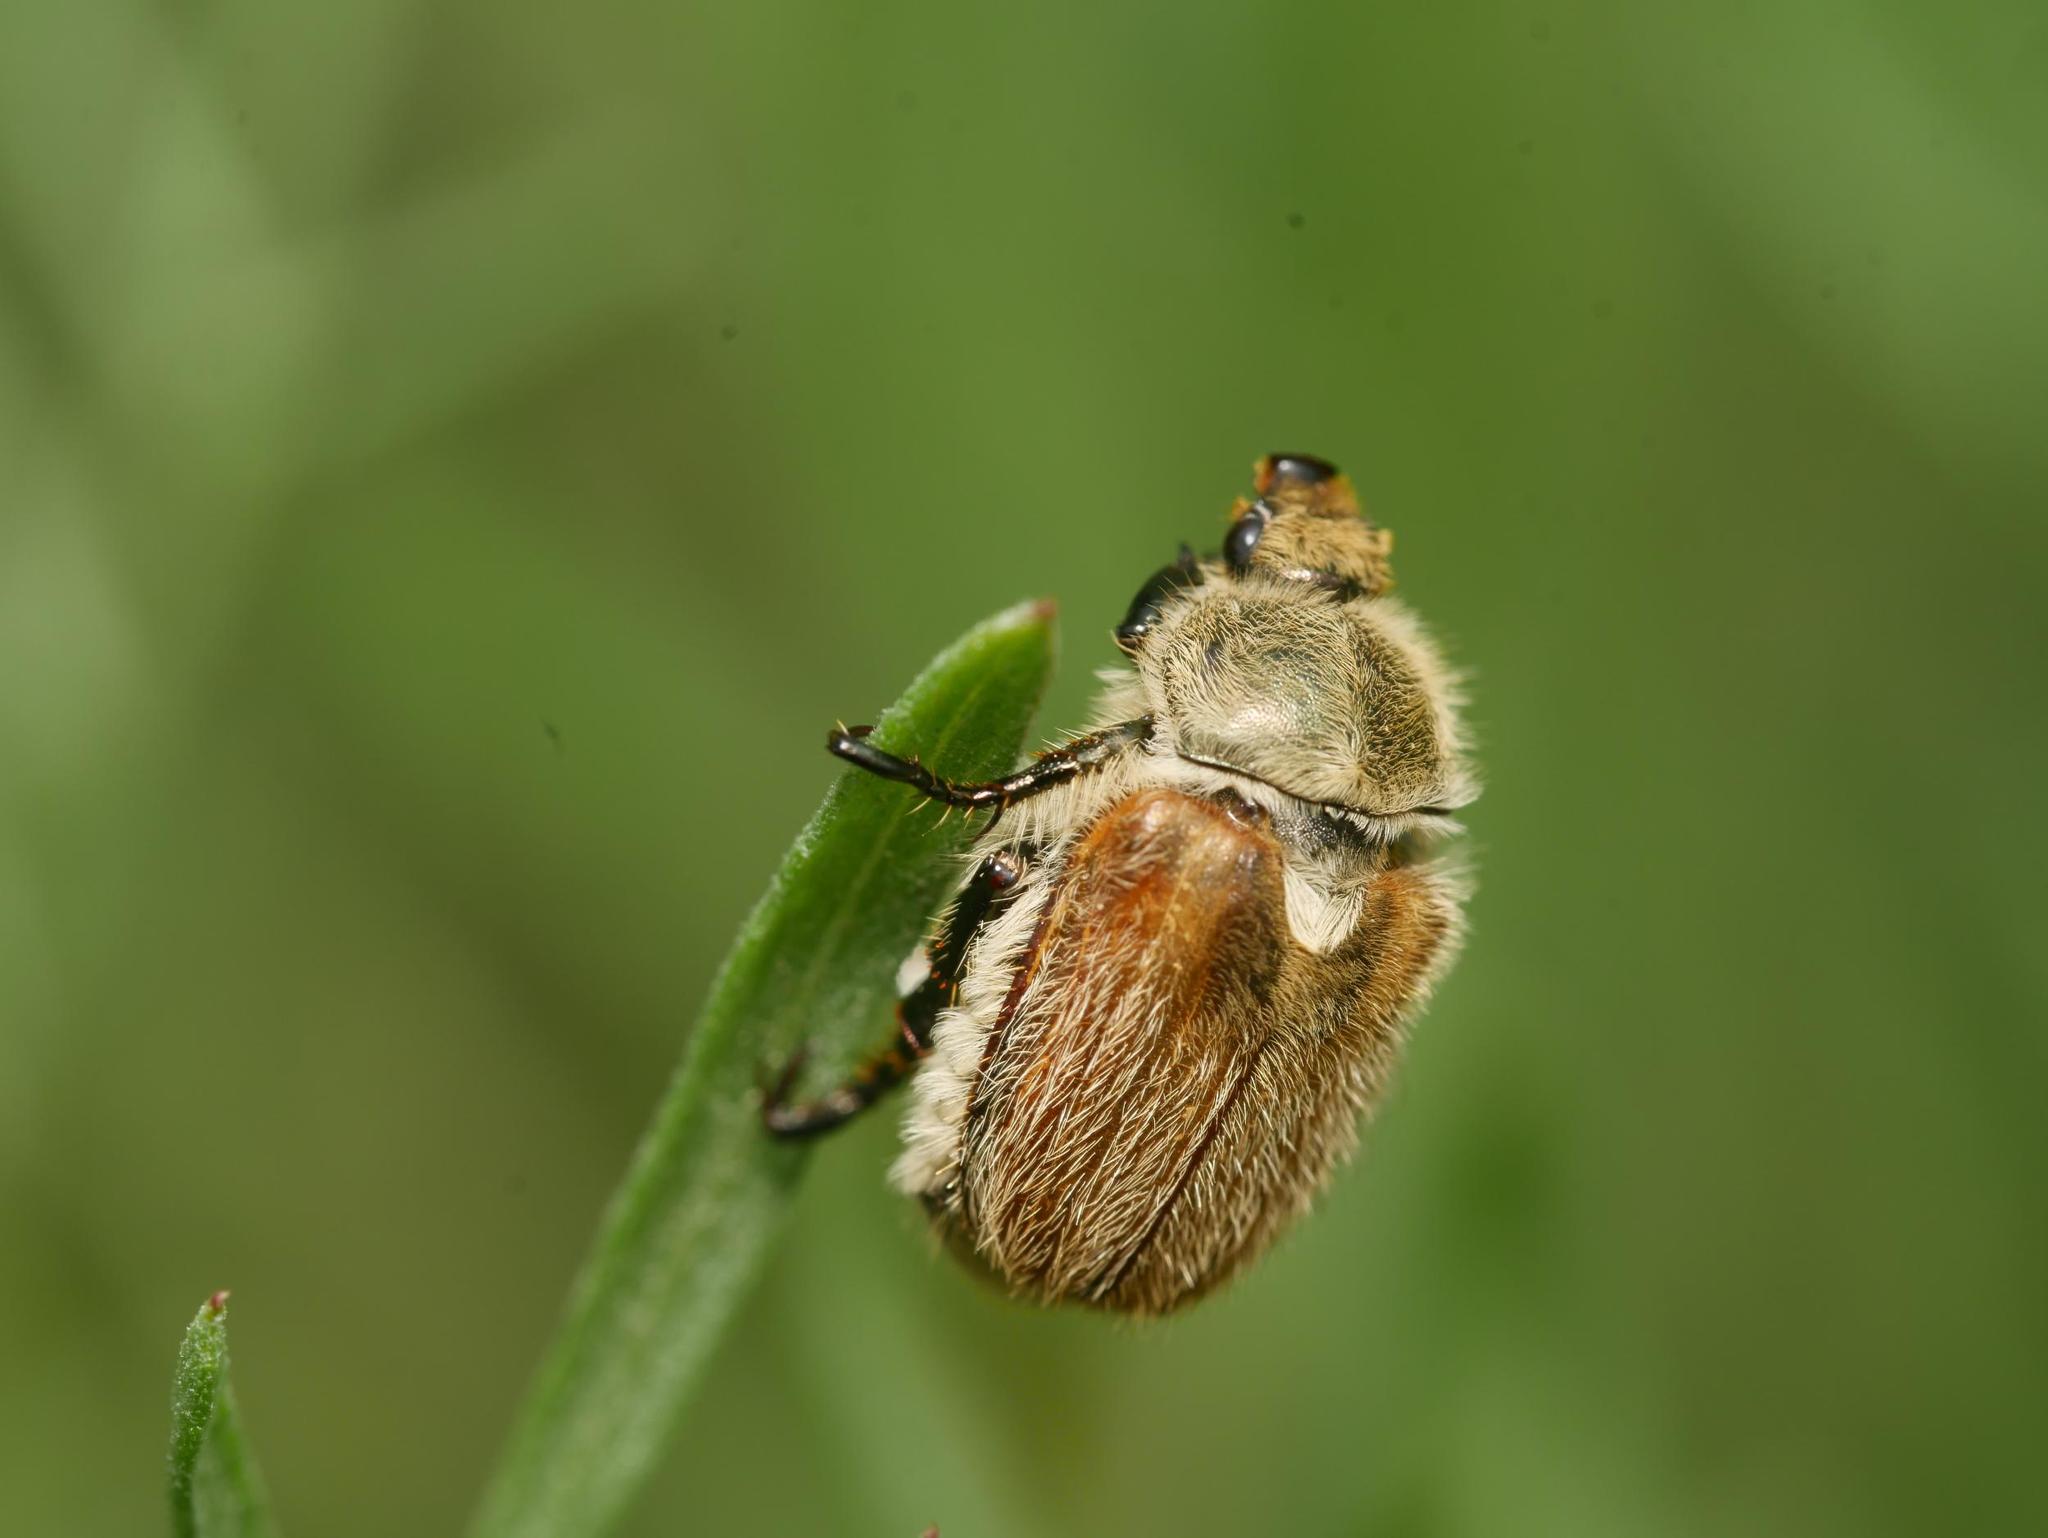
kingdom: Animalia
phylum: Arthropoda
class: Insecta
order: Coleoptera
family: Scarabaeidae
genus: Chaetopteroplia
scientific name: Chaetopteroplia segetum
